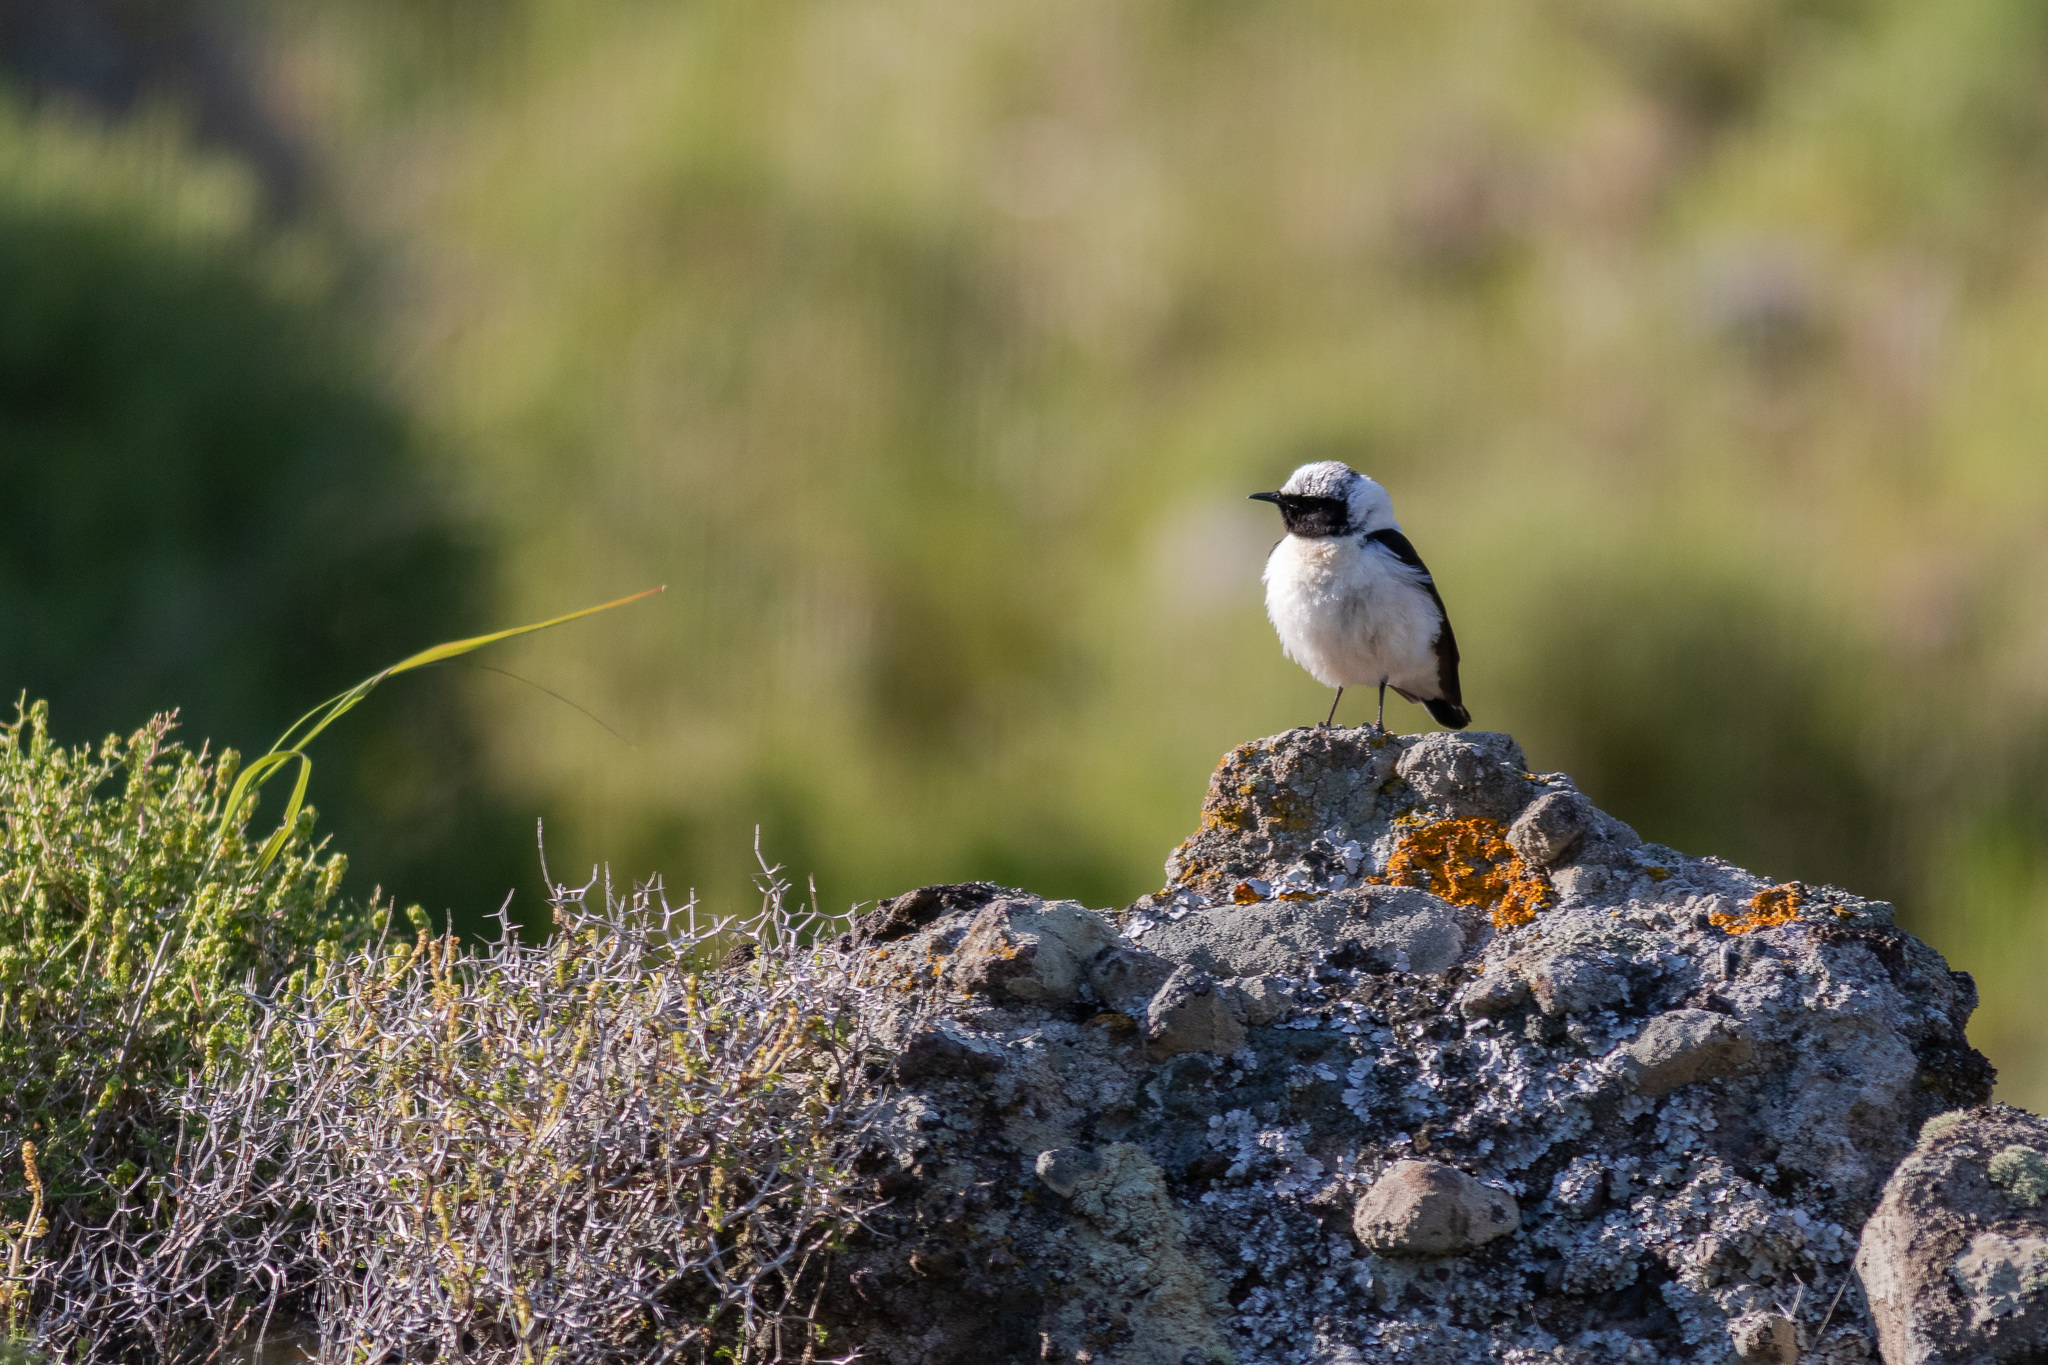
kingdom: Animalia
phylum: Chordata
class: Aves
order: Passeriformes
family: Muscicapidae
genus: Oenanthe
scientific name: Oenanthe hispanica
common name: Black-eared wheatear
